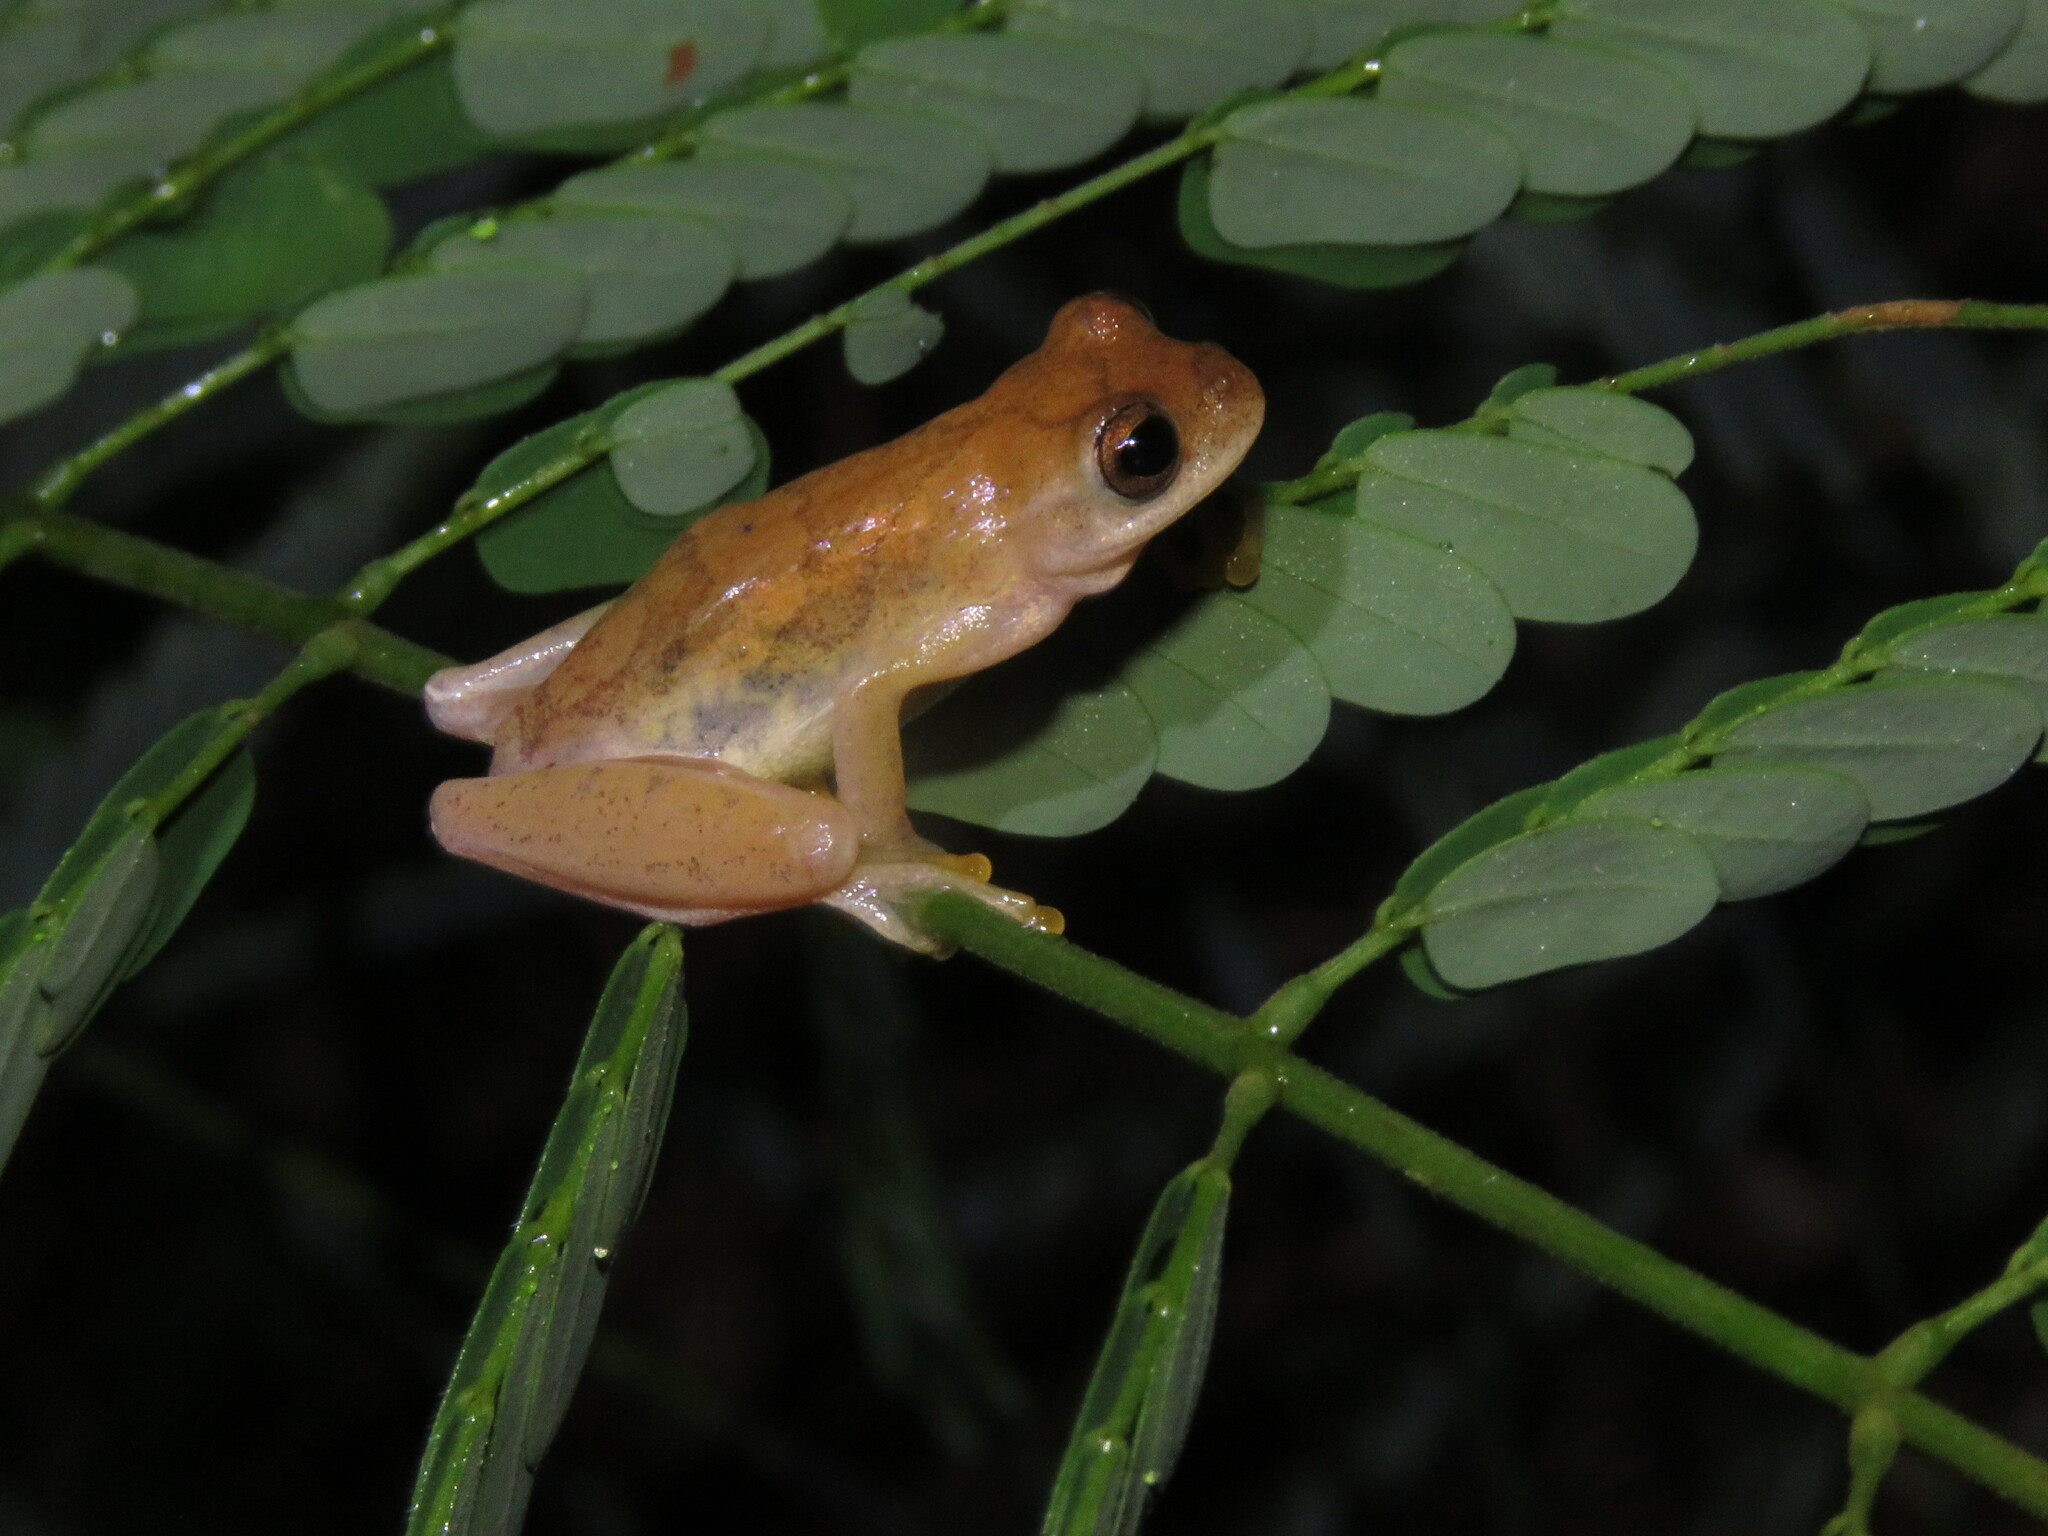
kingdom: Animalia
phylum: Chordata
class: Amphibia
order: Anura
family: Hylidae
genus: Dendropsophus
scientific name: Dendropsophus minutus
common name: Lesser treefrog
